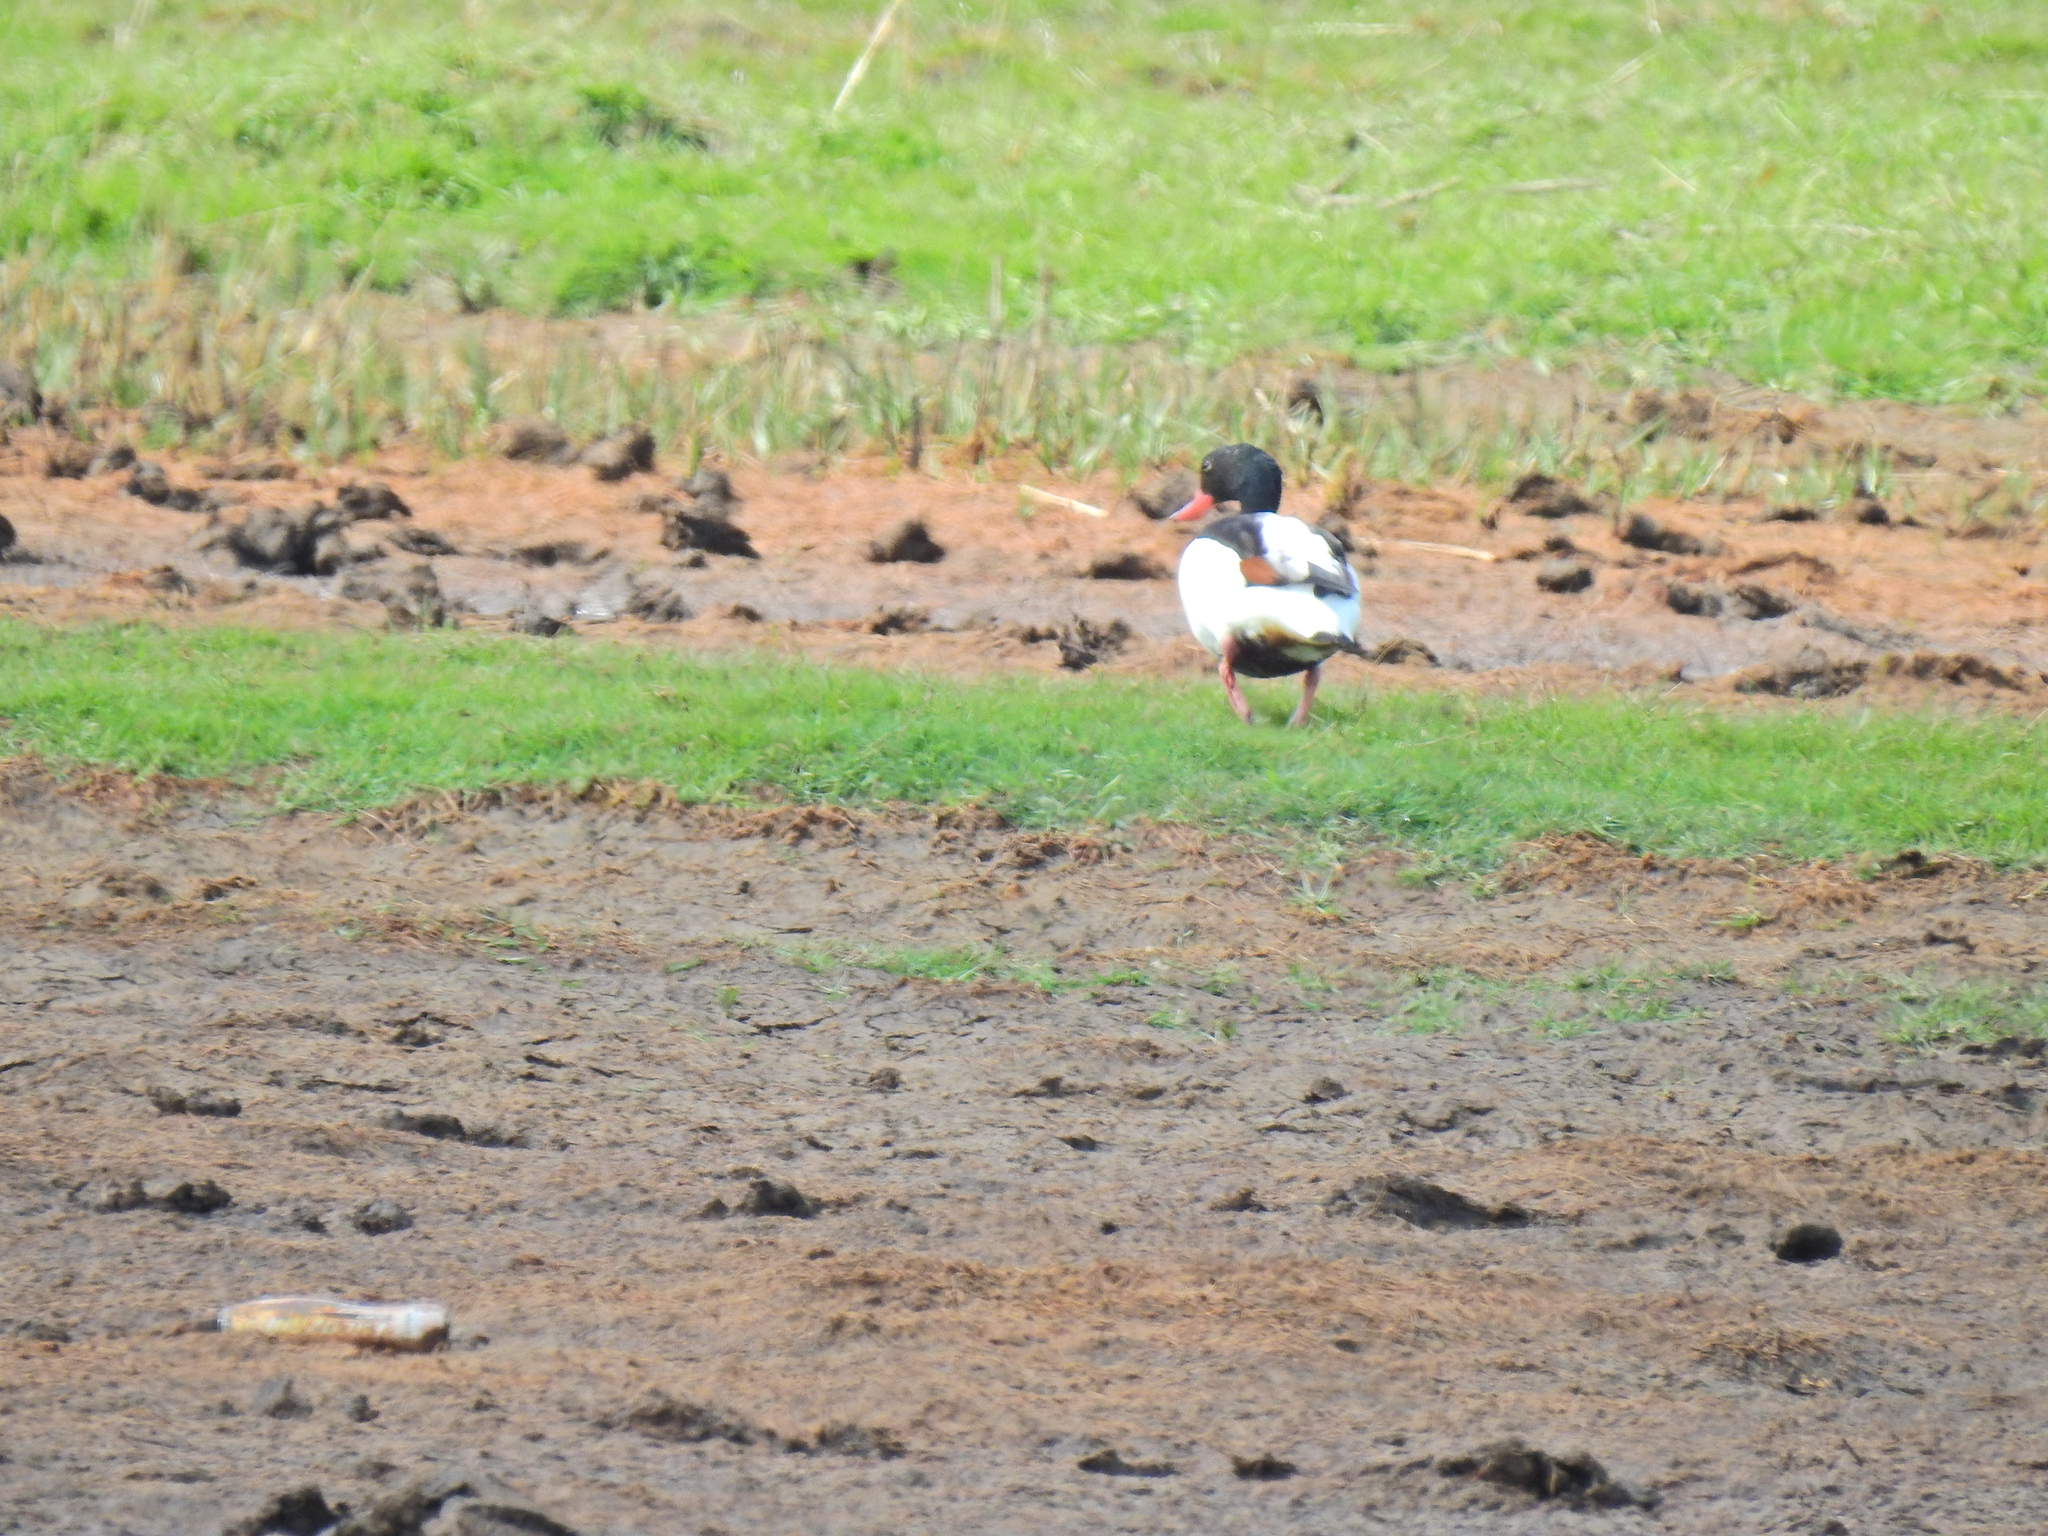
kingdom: Animalia
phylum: Chordata
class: Aves
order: Anseriformes
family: Anatidae
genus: Tadorna
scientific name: Tadorna tadorna
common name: Common shelduck
